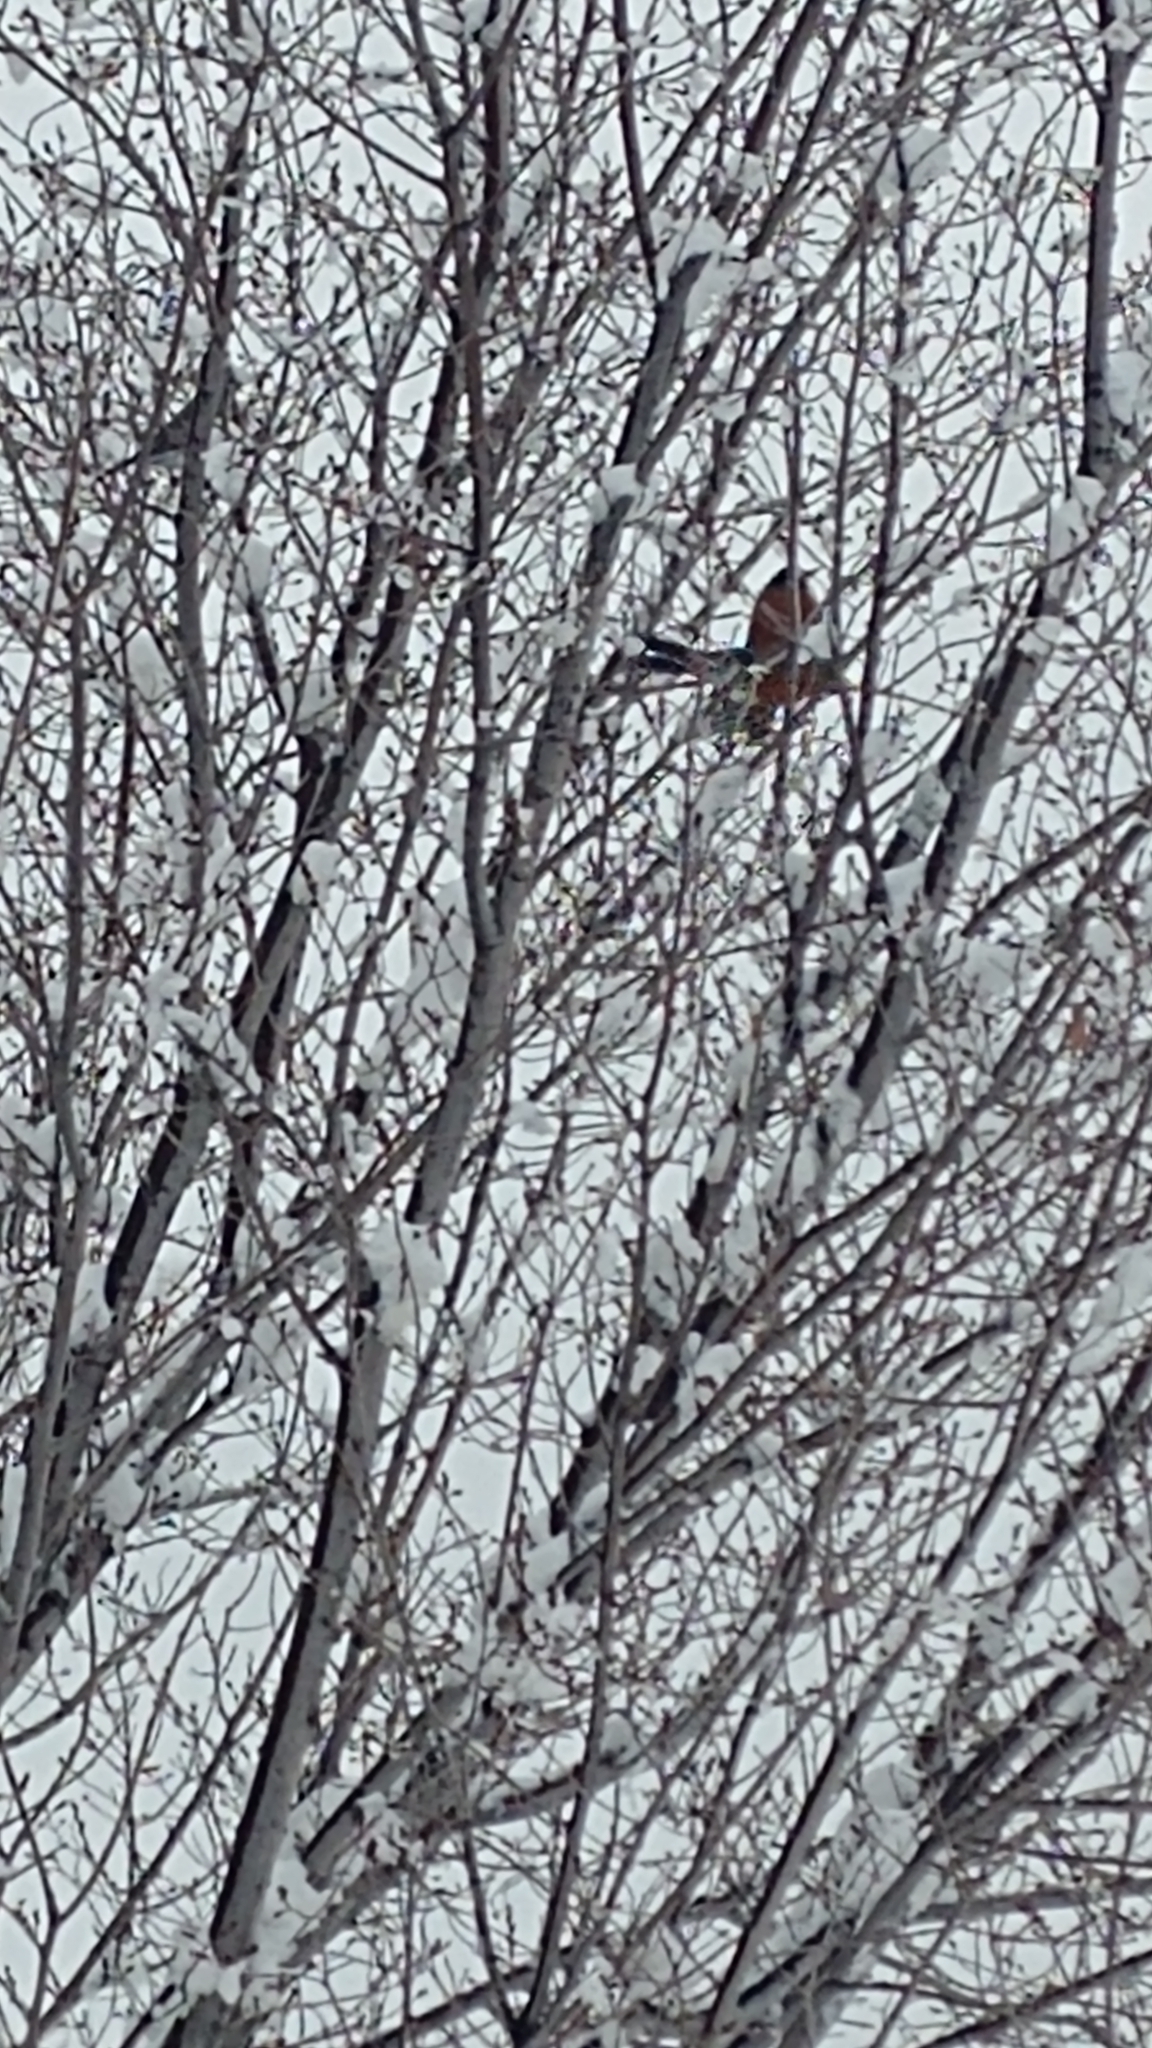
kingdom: Animalia
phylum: Chordata
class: Aves
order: Passeriformes
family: Turdidae
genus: Turdus
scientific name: Turdus migratorius
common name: American robin
